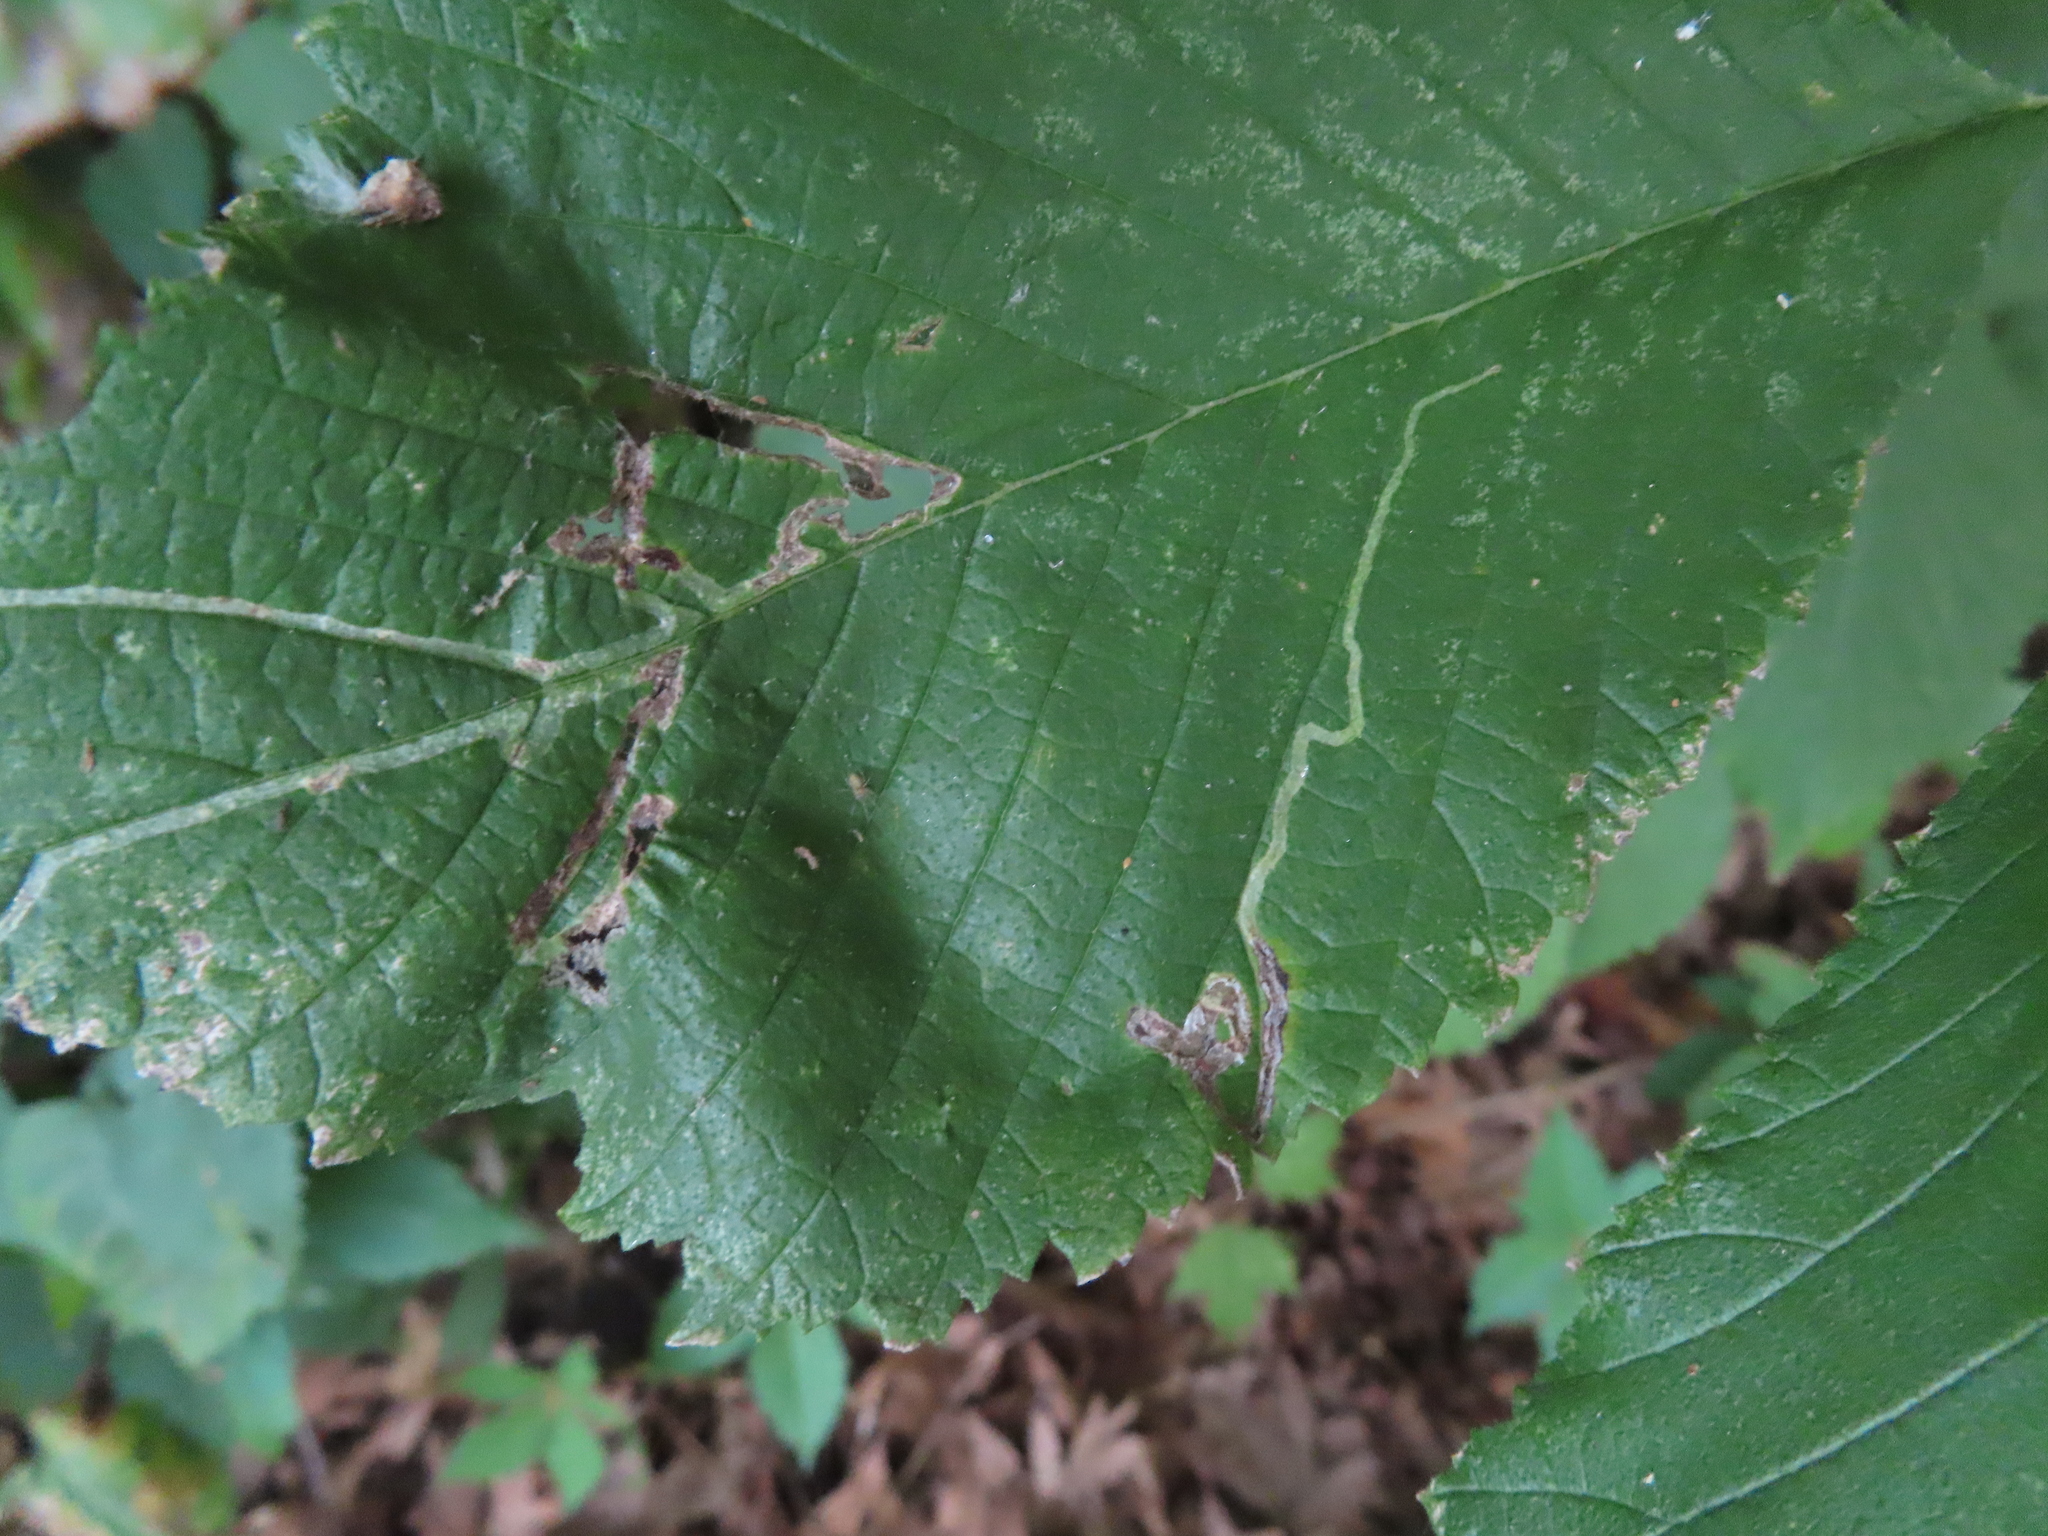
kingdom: Animalia
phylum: Arthropoda
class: Insecta
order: Diptera
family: Agromyzidae
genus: Agromyza
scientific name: Agromyza aristata
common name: Elm agromyzid leafminer
